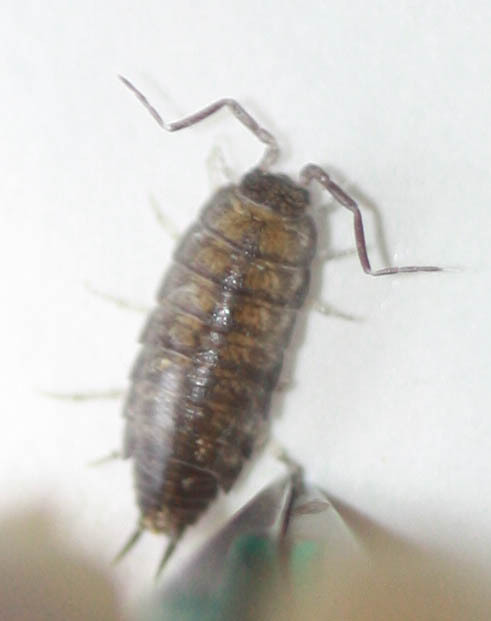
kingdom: Animalia
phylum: Arthropoda
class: Malacostraca
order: Isopoda
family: Halophilosciidae
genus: Littorophiloscia
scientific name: Littorophiloscia richardsonae
